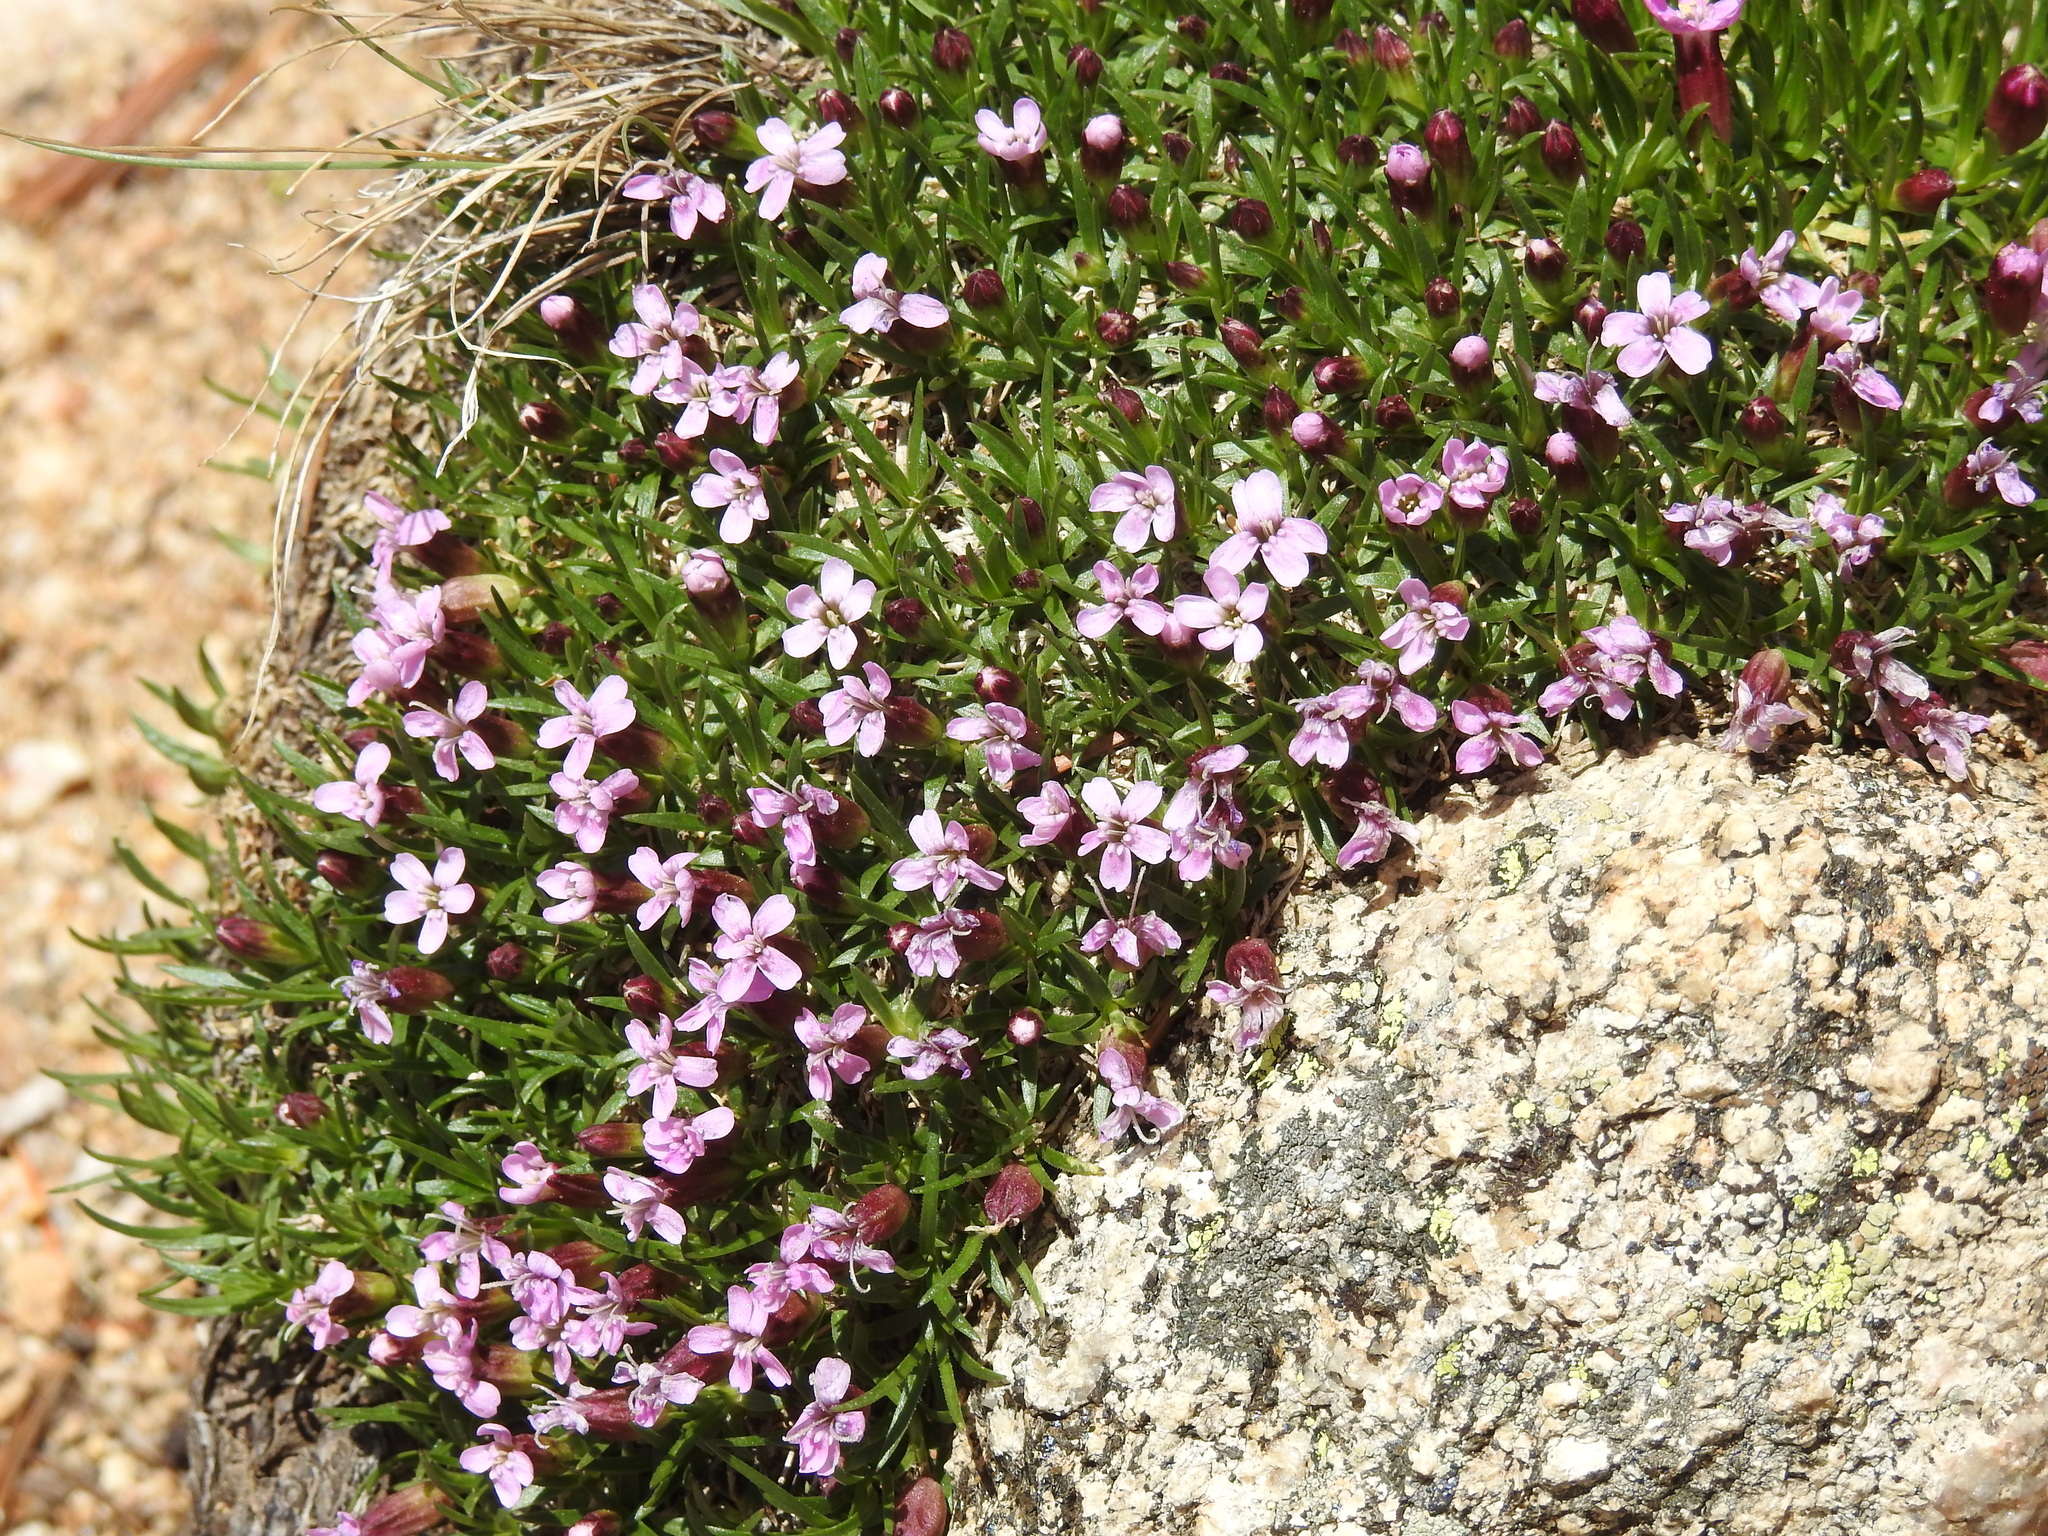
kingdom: Plantae
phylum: Tracheophyta
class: Magnoliopsida
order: Caryophyllales
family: Caryophyllaceae
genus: Silene
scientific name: Silene acaulis
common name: Moss campion
